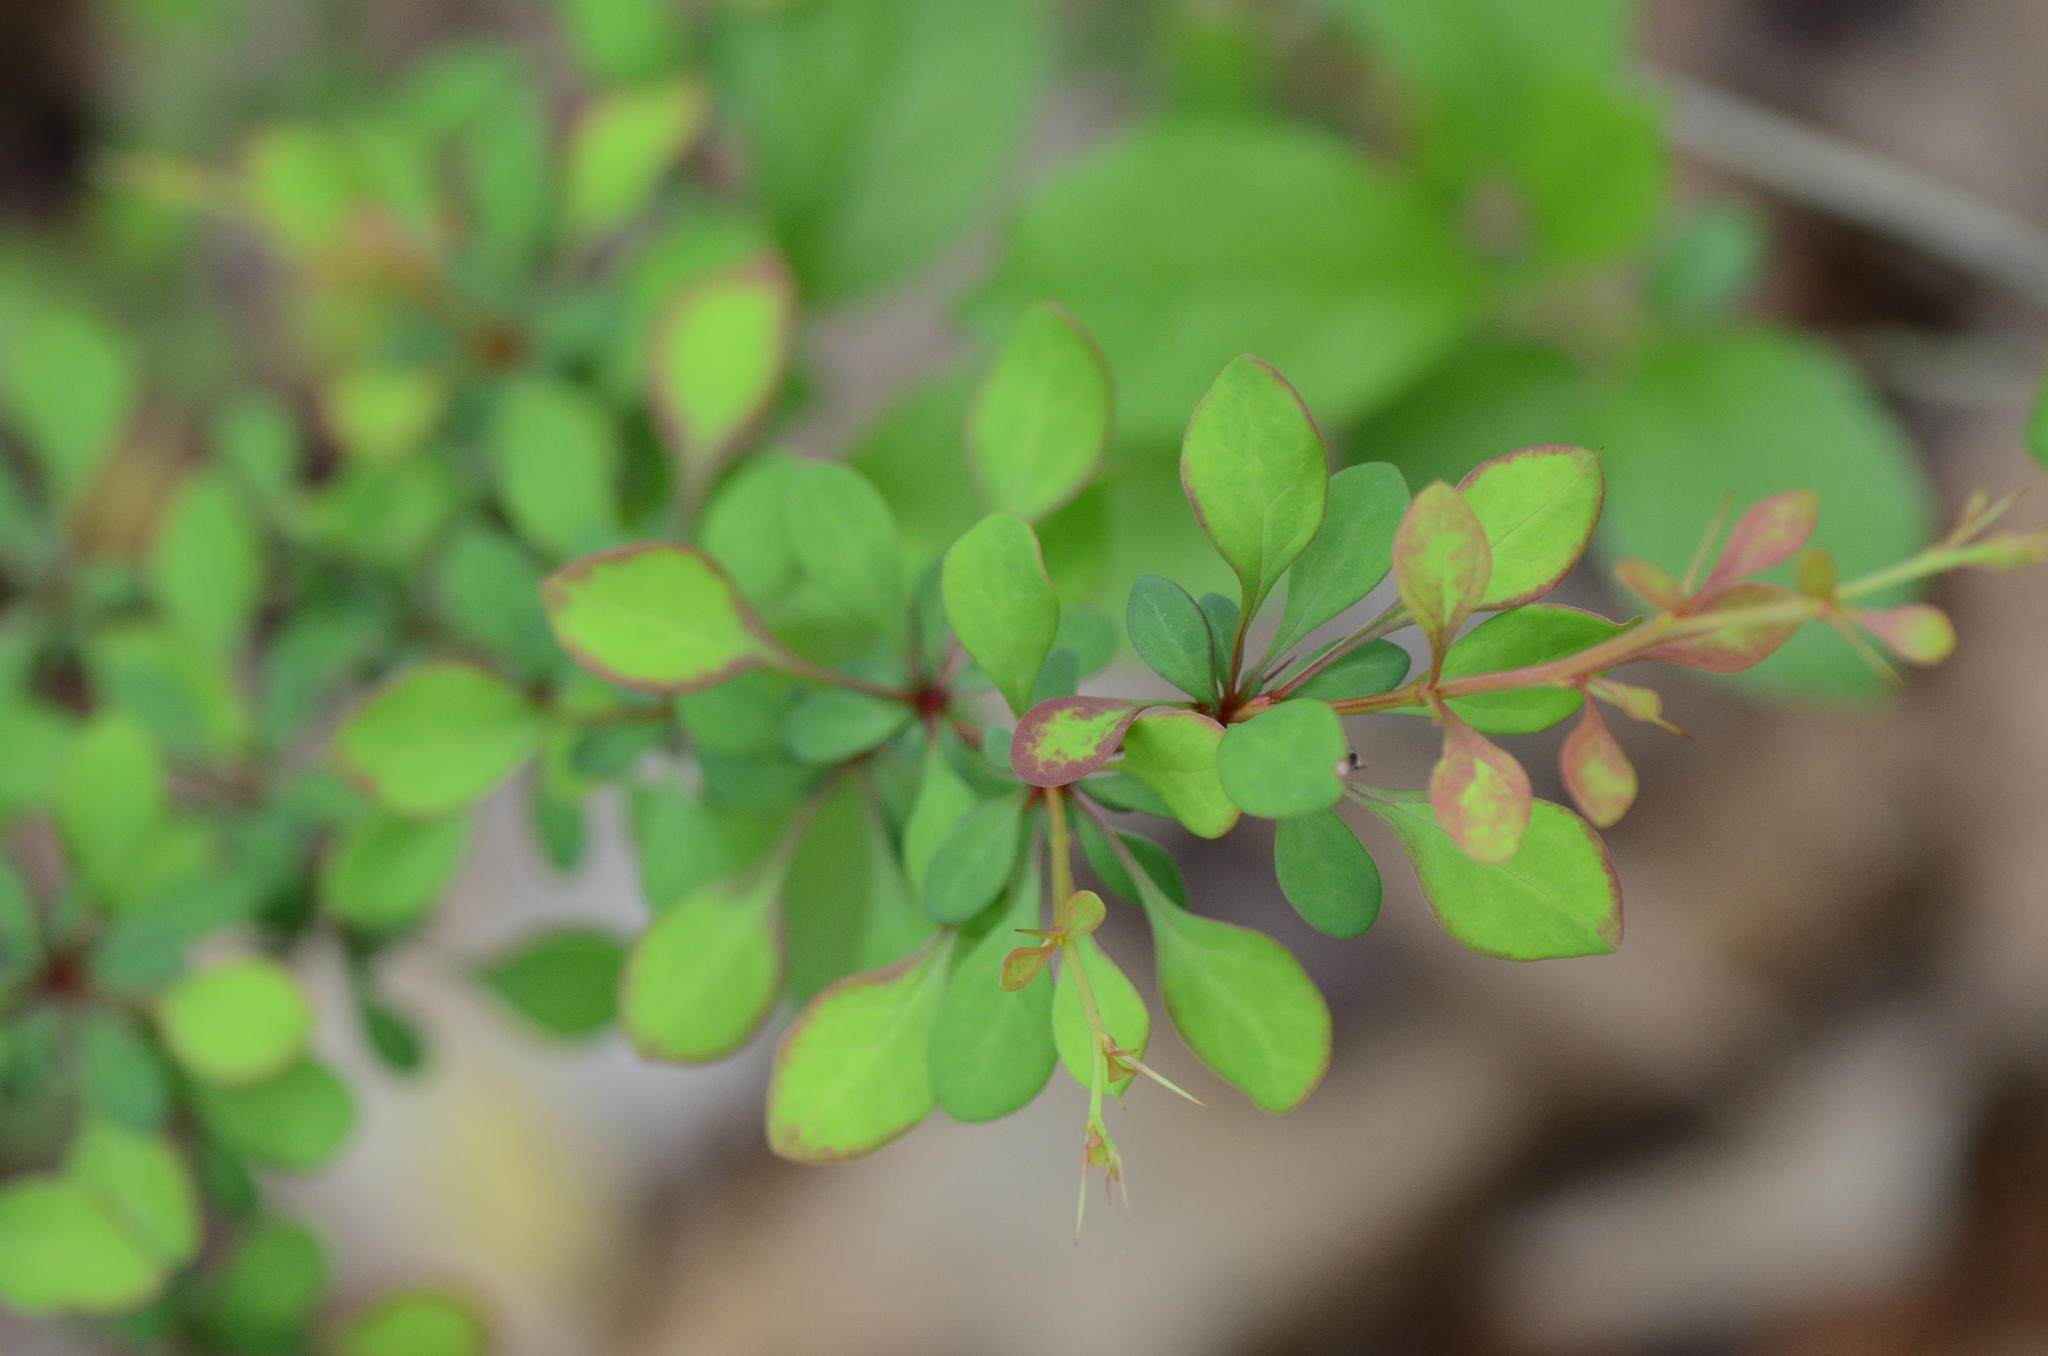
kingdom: Plantae
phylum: Tracheophyta
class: Magnoliopsida
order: Ranunculales
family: Berberidaceae
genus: Berberis
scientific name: Berberis thunbergii
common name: Japanese barberry
